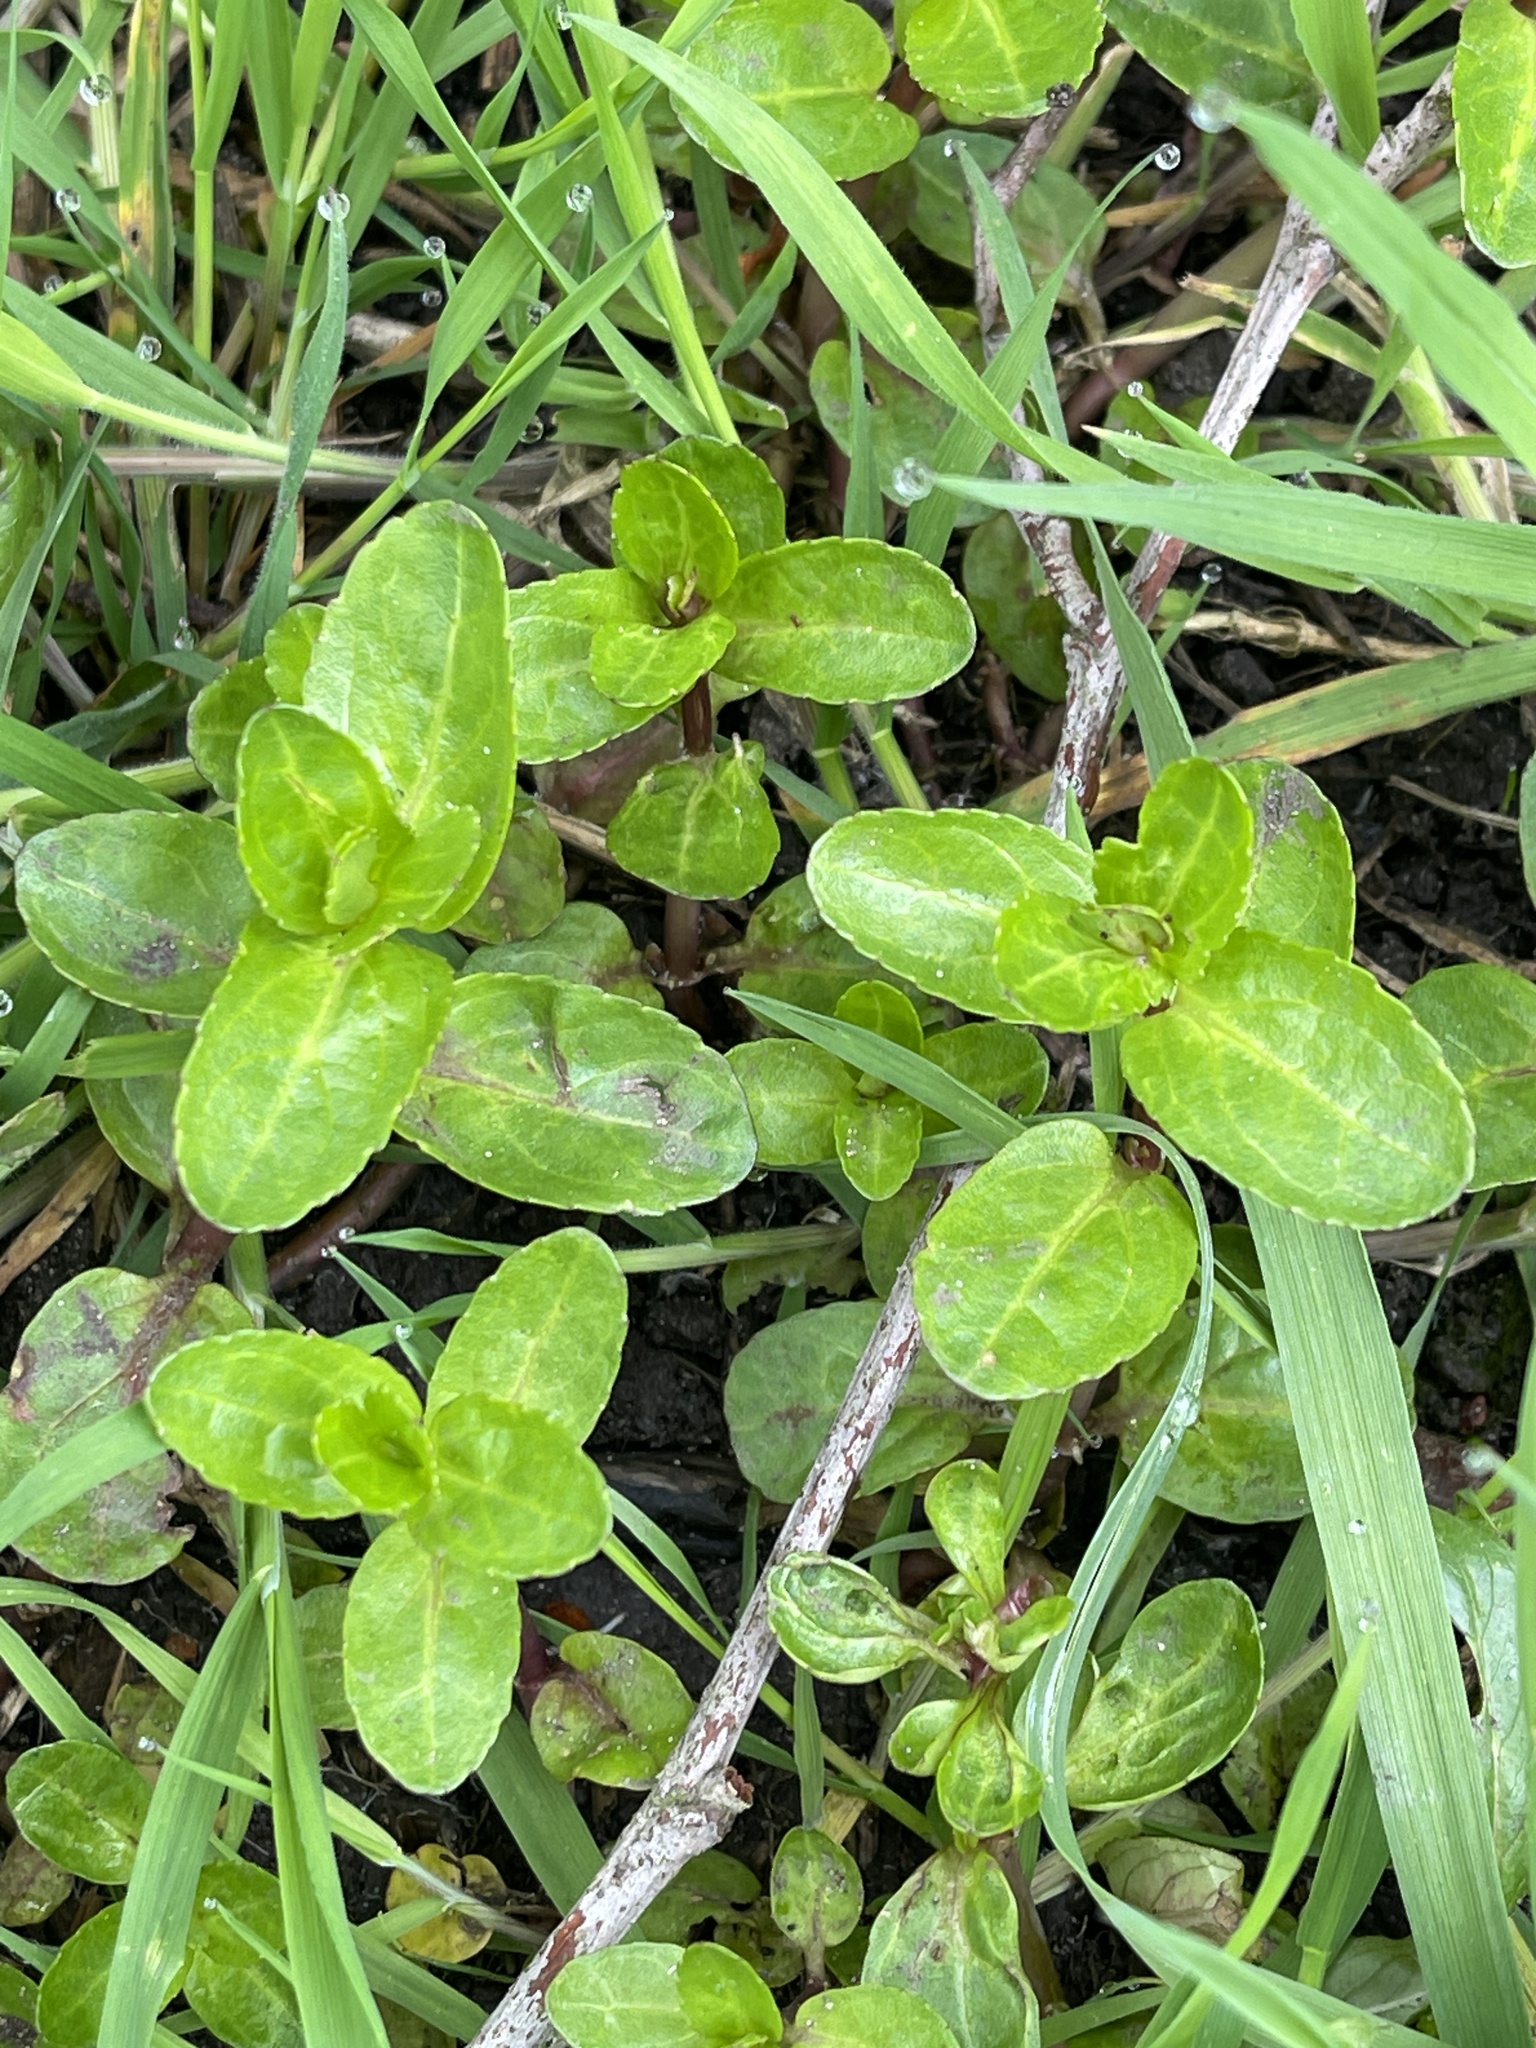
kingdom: Plantae
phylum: Tracheophyta
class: Magnoliopsida
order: Lamiales
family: Plantaginaceae
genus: Veronica
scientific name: Veronica beccabunga
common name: Brooklime
